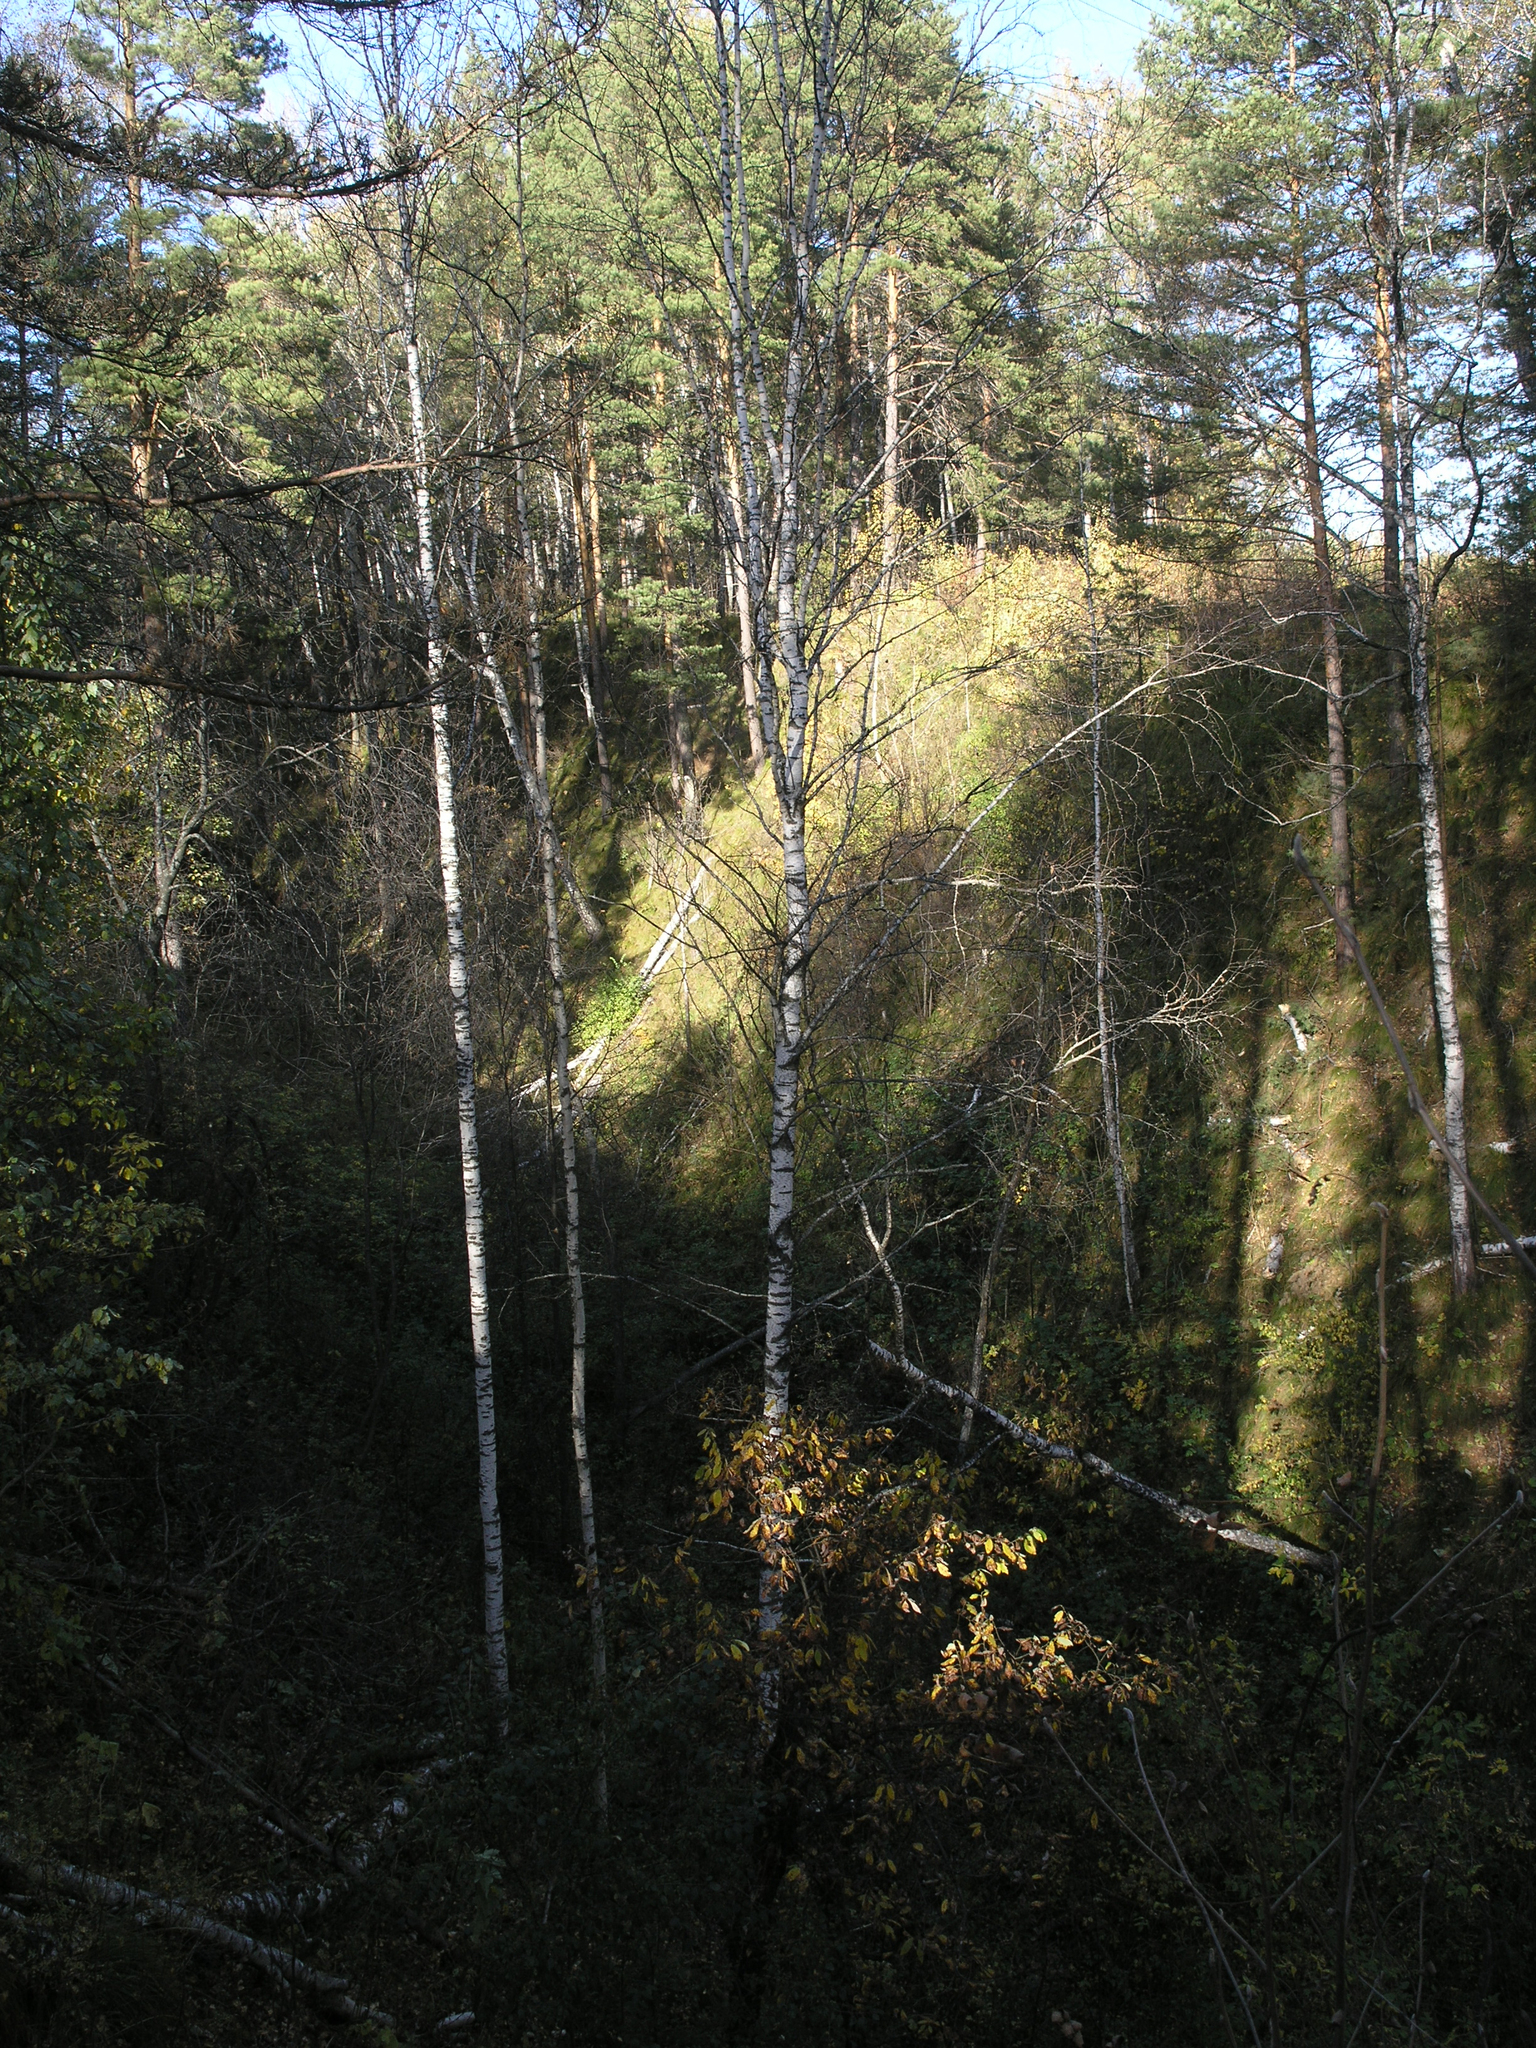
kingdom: Plantae
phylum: Tracheophyta
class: Magnoliopsida
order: Fagales
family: Betulaceae
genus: Betula
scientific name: Betula pendula
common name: Silver birch
